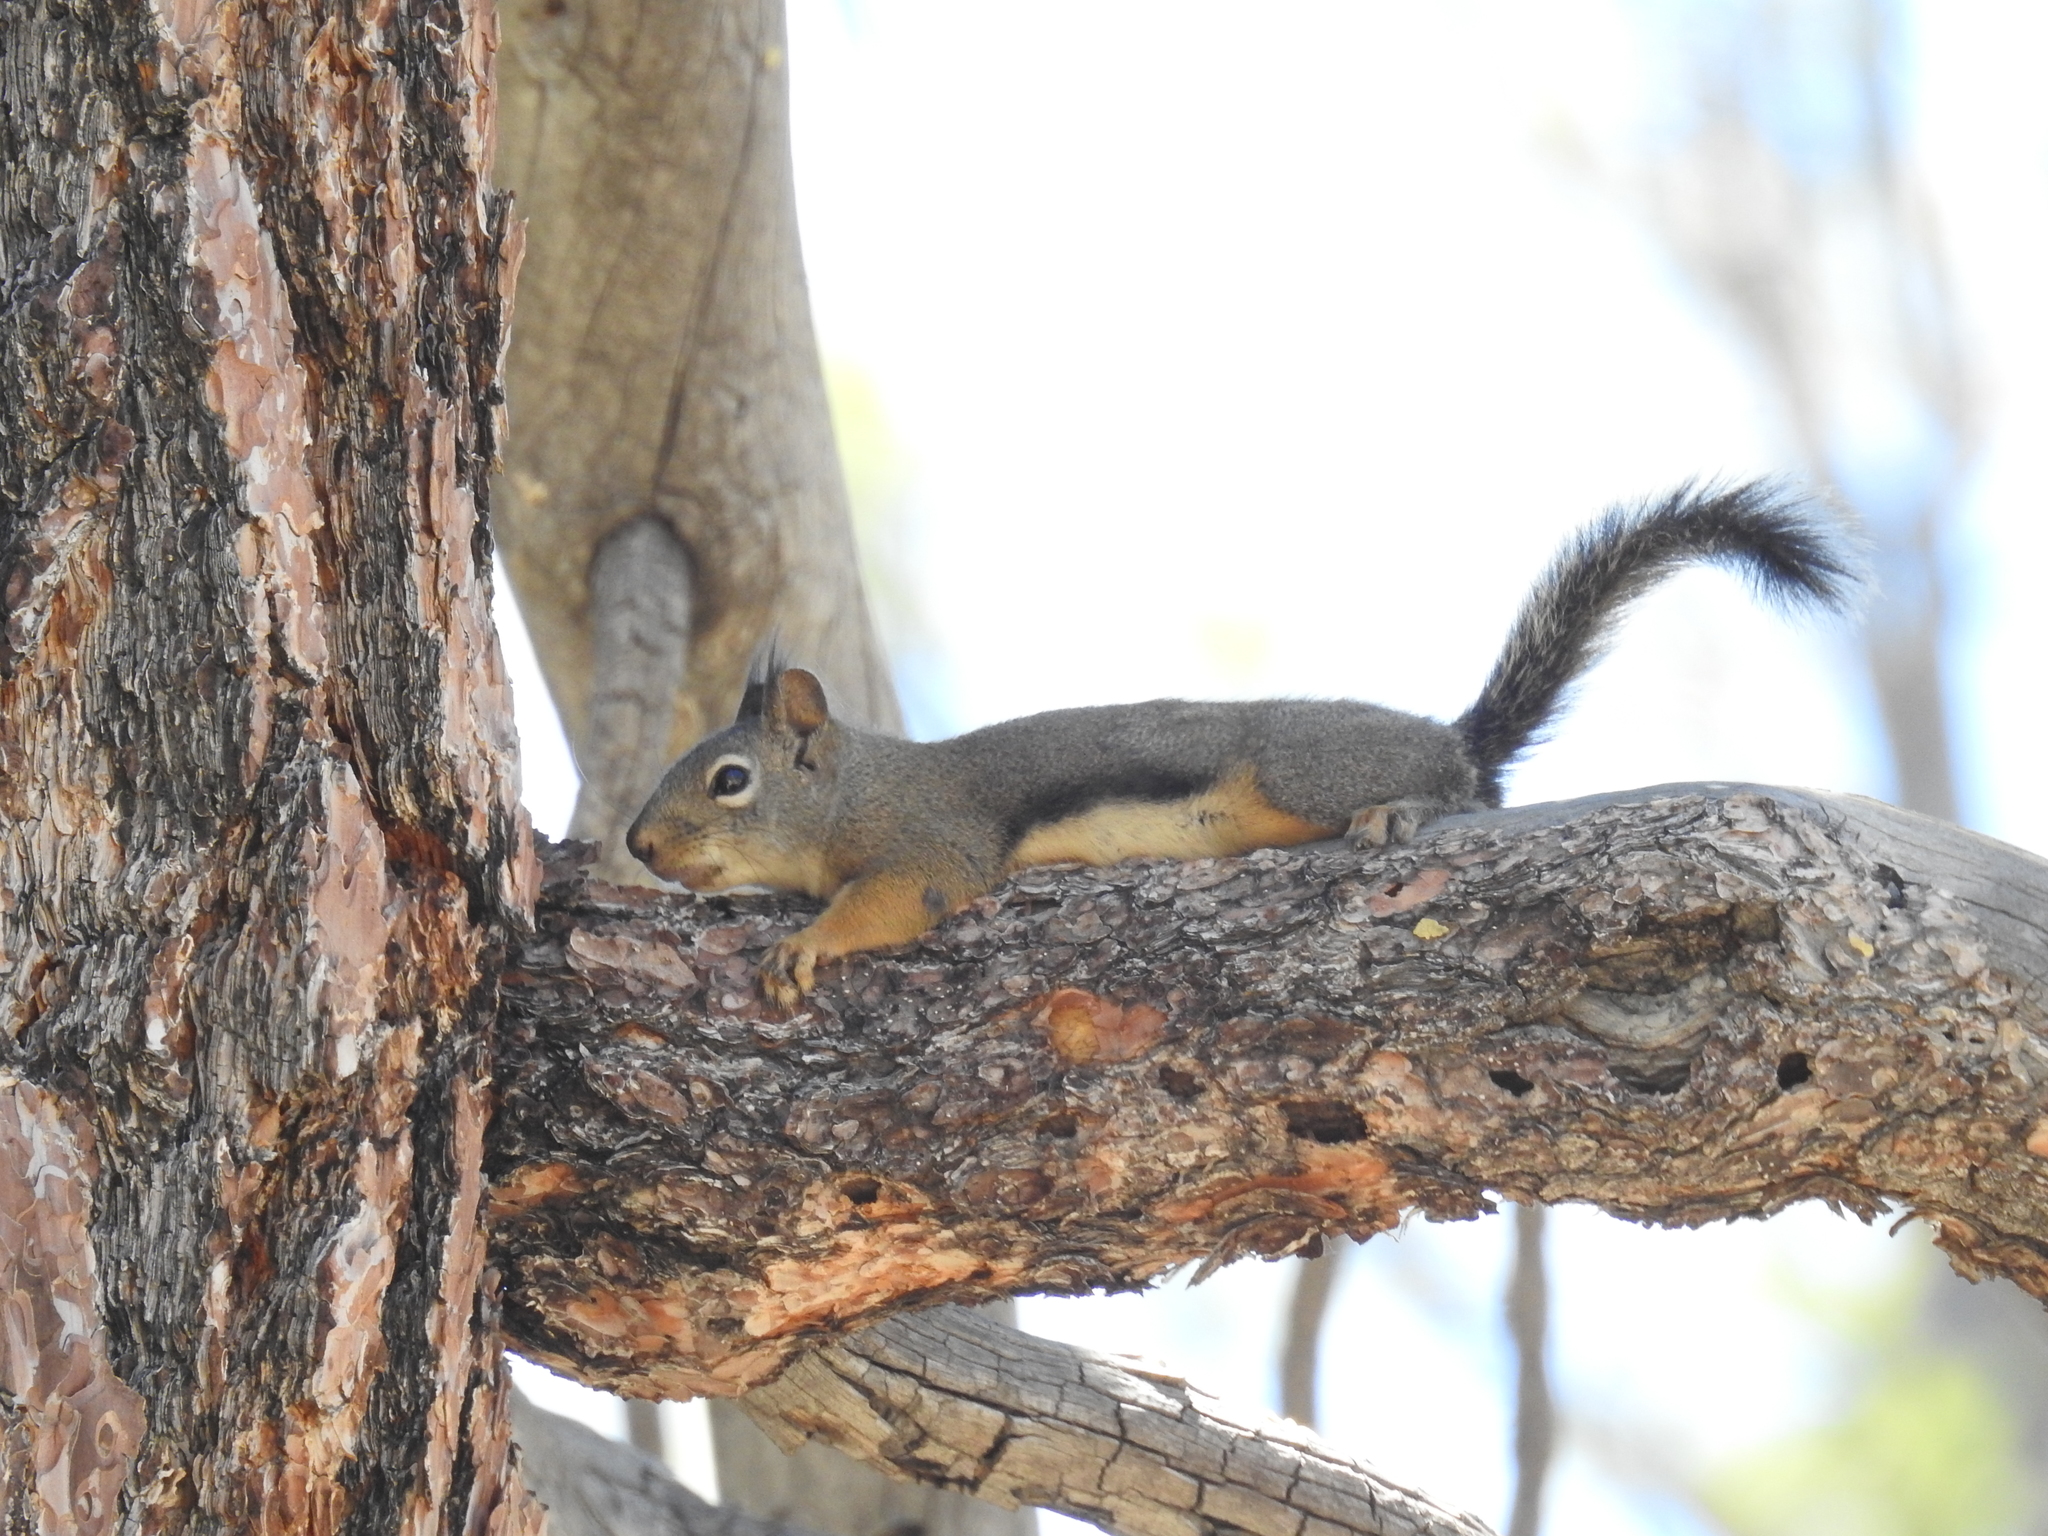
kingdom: Animalia
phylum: Chordata
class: Mammalia
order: Rodentia
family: Sciuridae
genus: Tamiasciurus
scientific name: Tamiasciurus douglasii
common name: Douglas's squirrel
